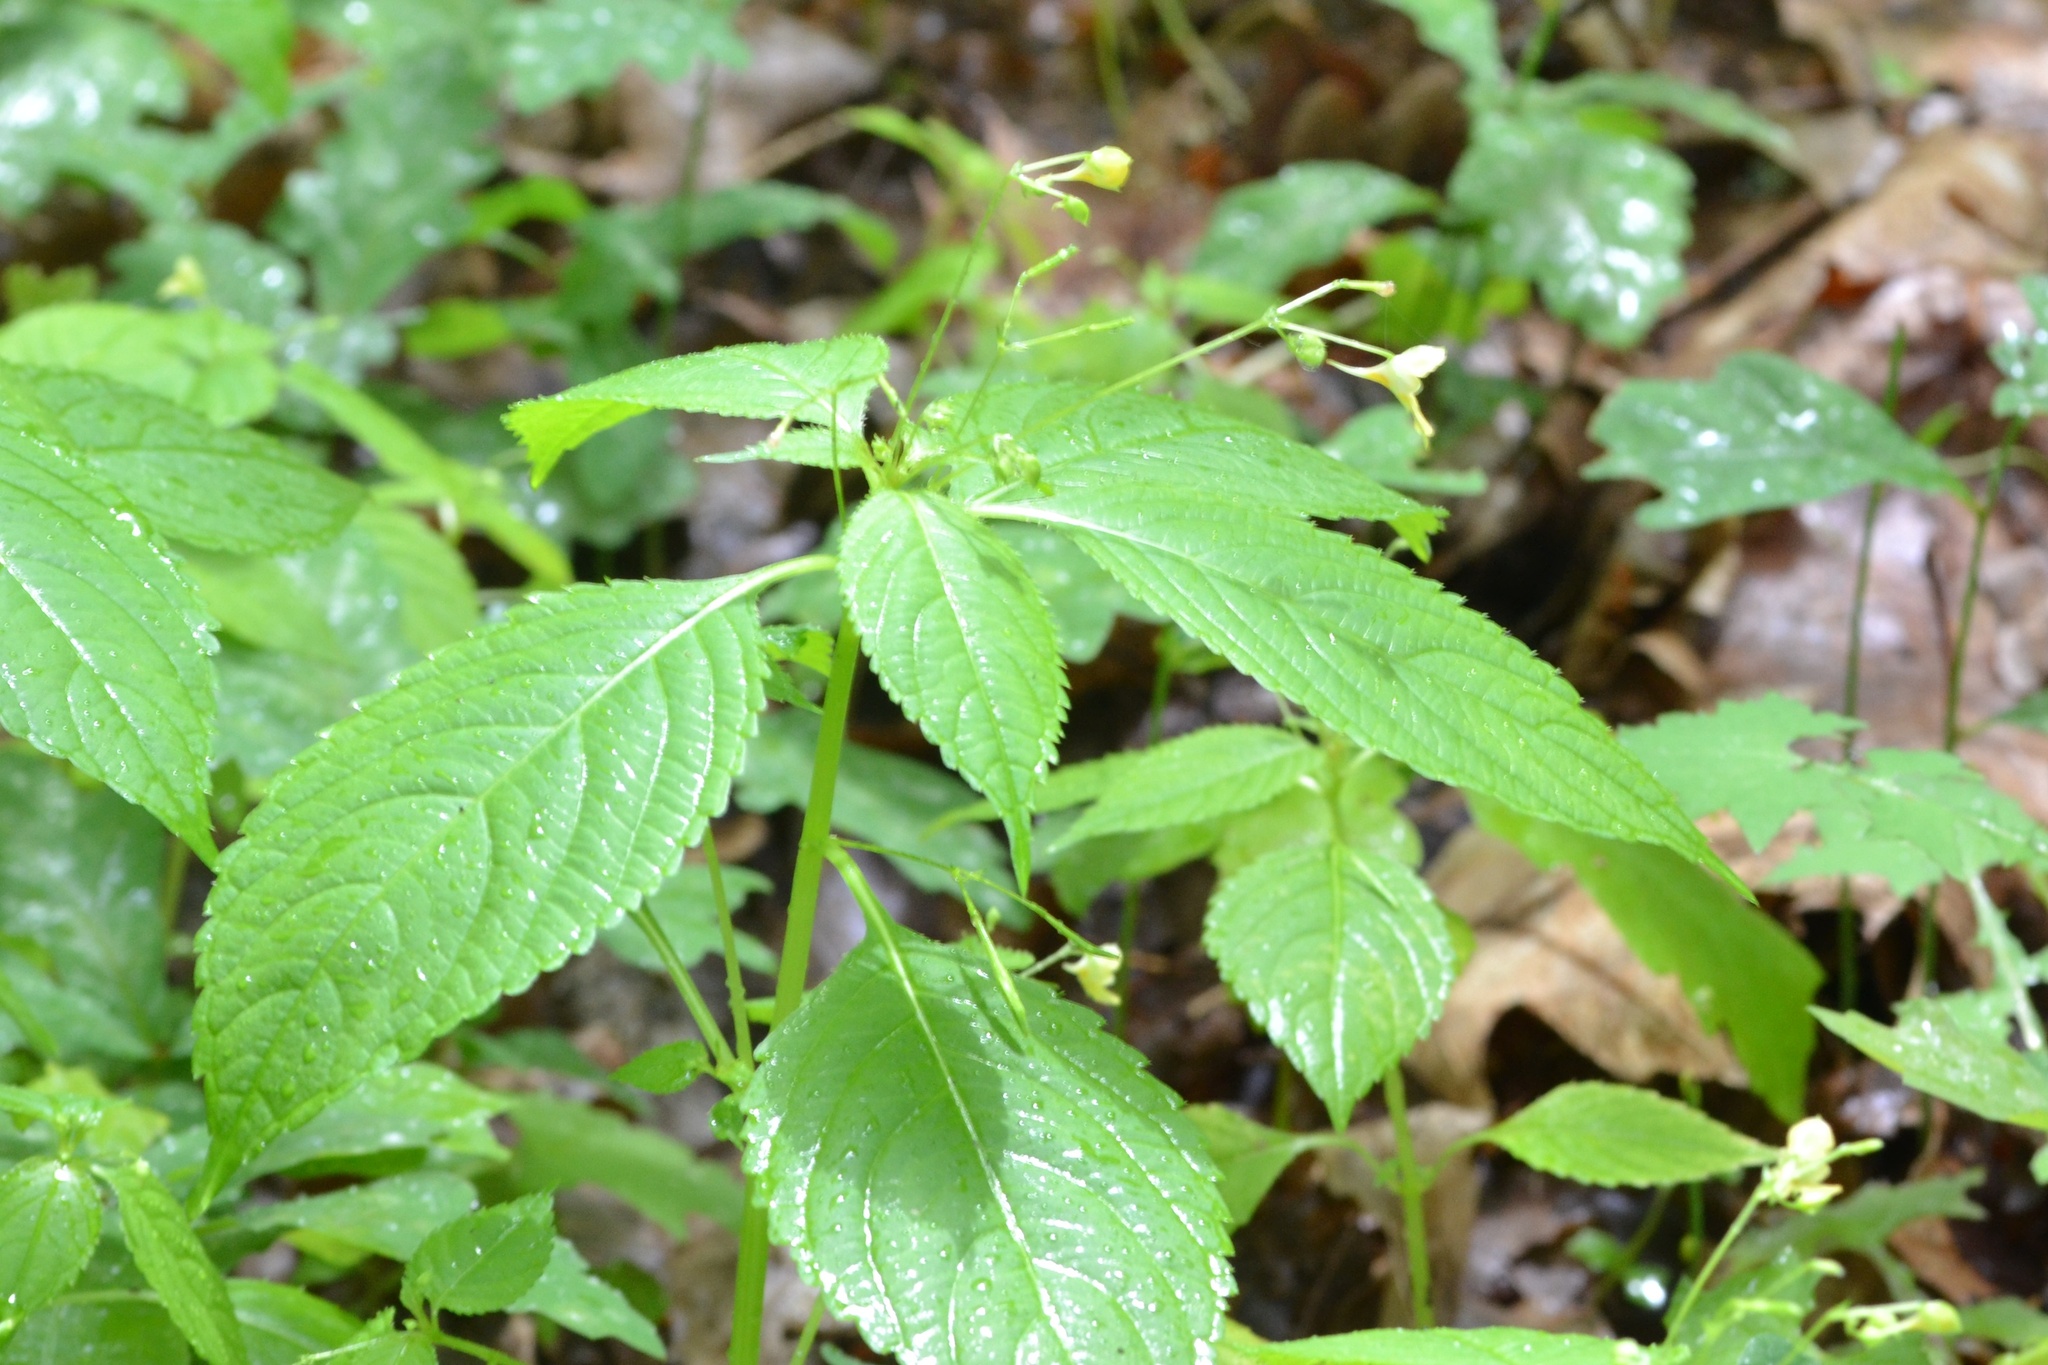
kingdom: Plantae
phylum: Tracheophyta
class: Magnoliopsida
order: Ericales
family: Balsaminaceae
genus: Impatiens
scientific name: Impatiens parviflora
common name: Small balsam
